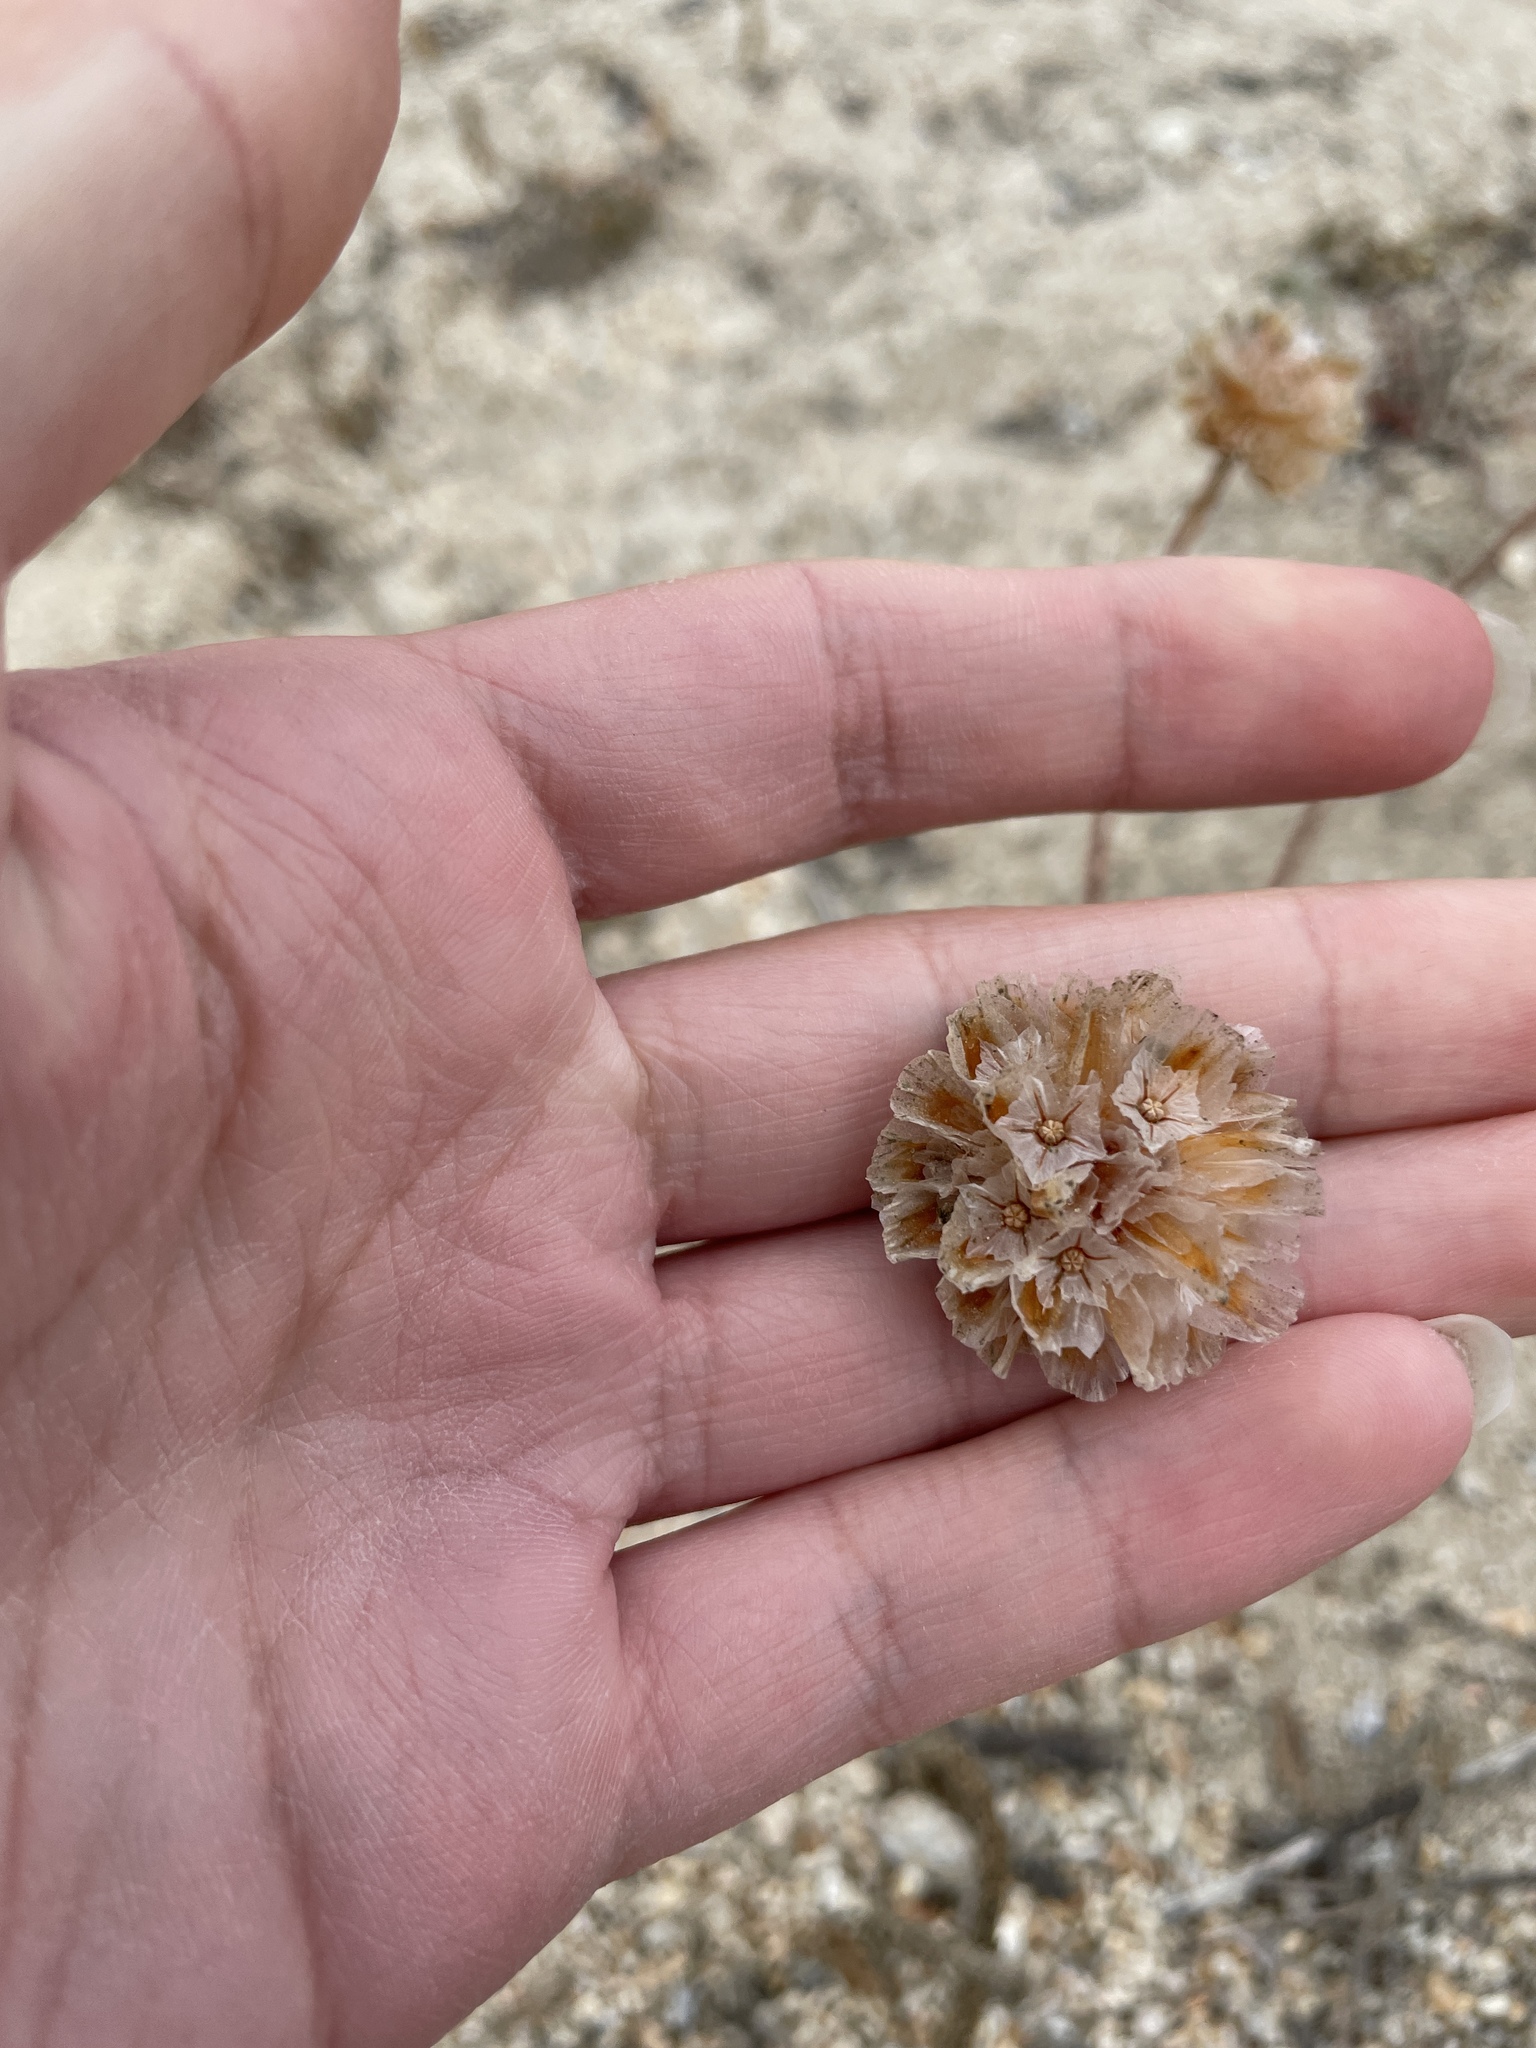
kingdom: Plantae
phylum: Tracheophyta
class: Magnoliopsida
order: Caryophyllales
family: Plumbaginaceae
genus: Armeria
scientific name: Armeria maritima
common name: Thrift
